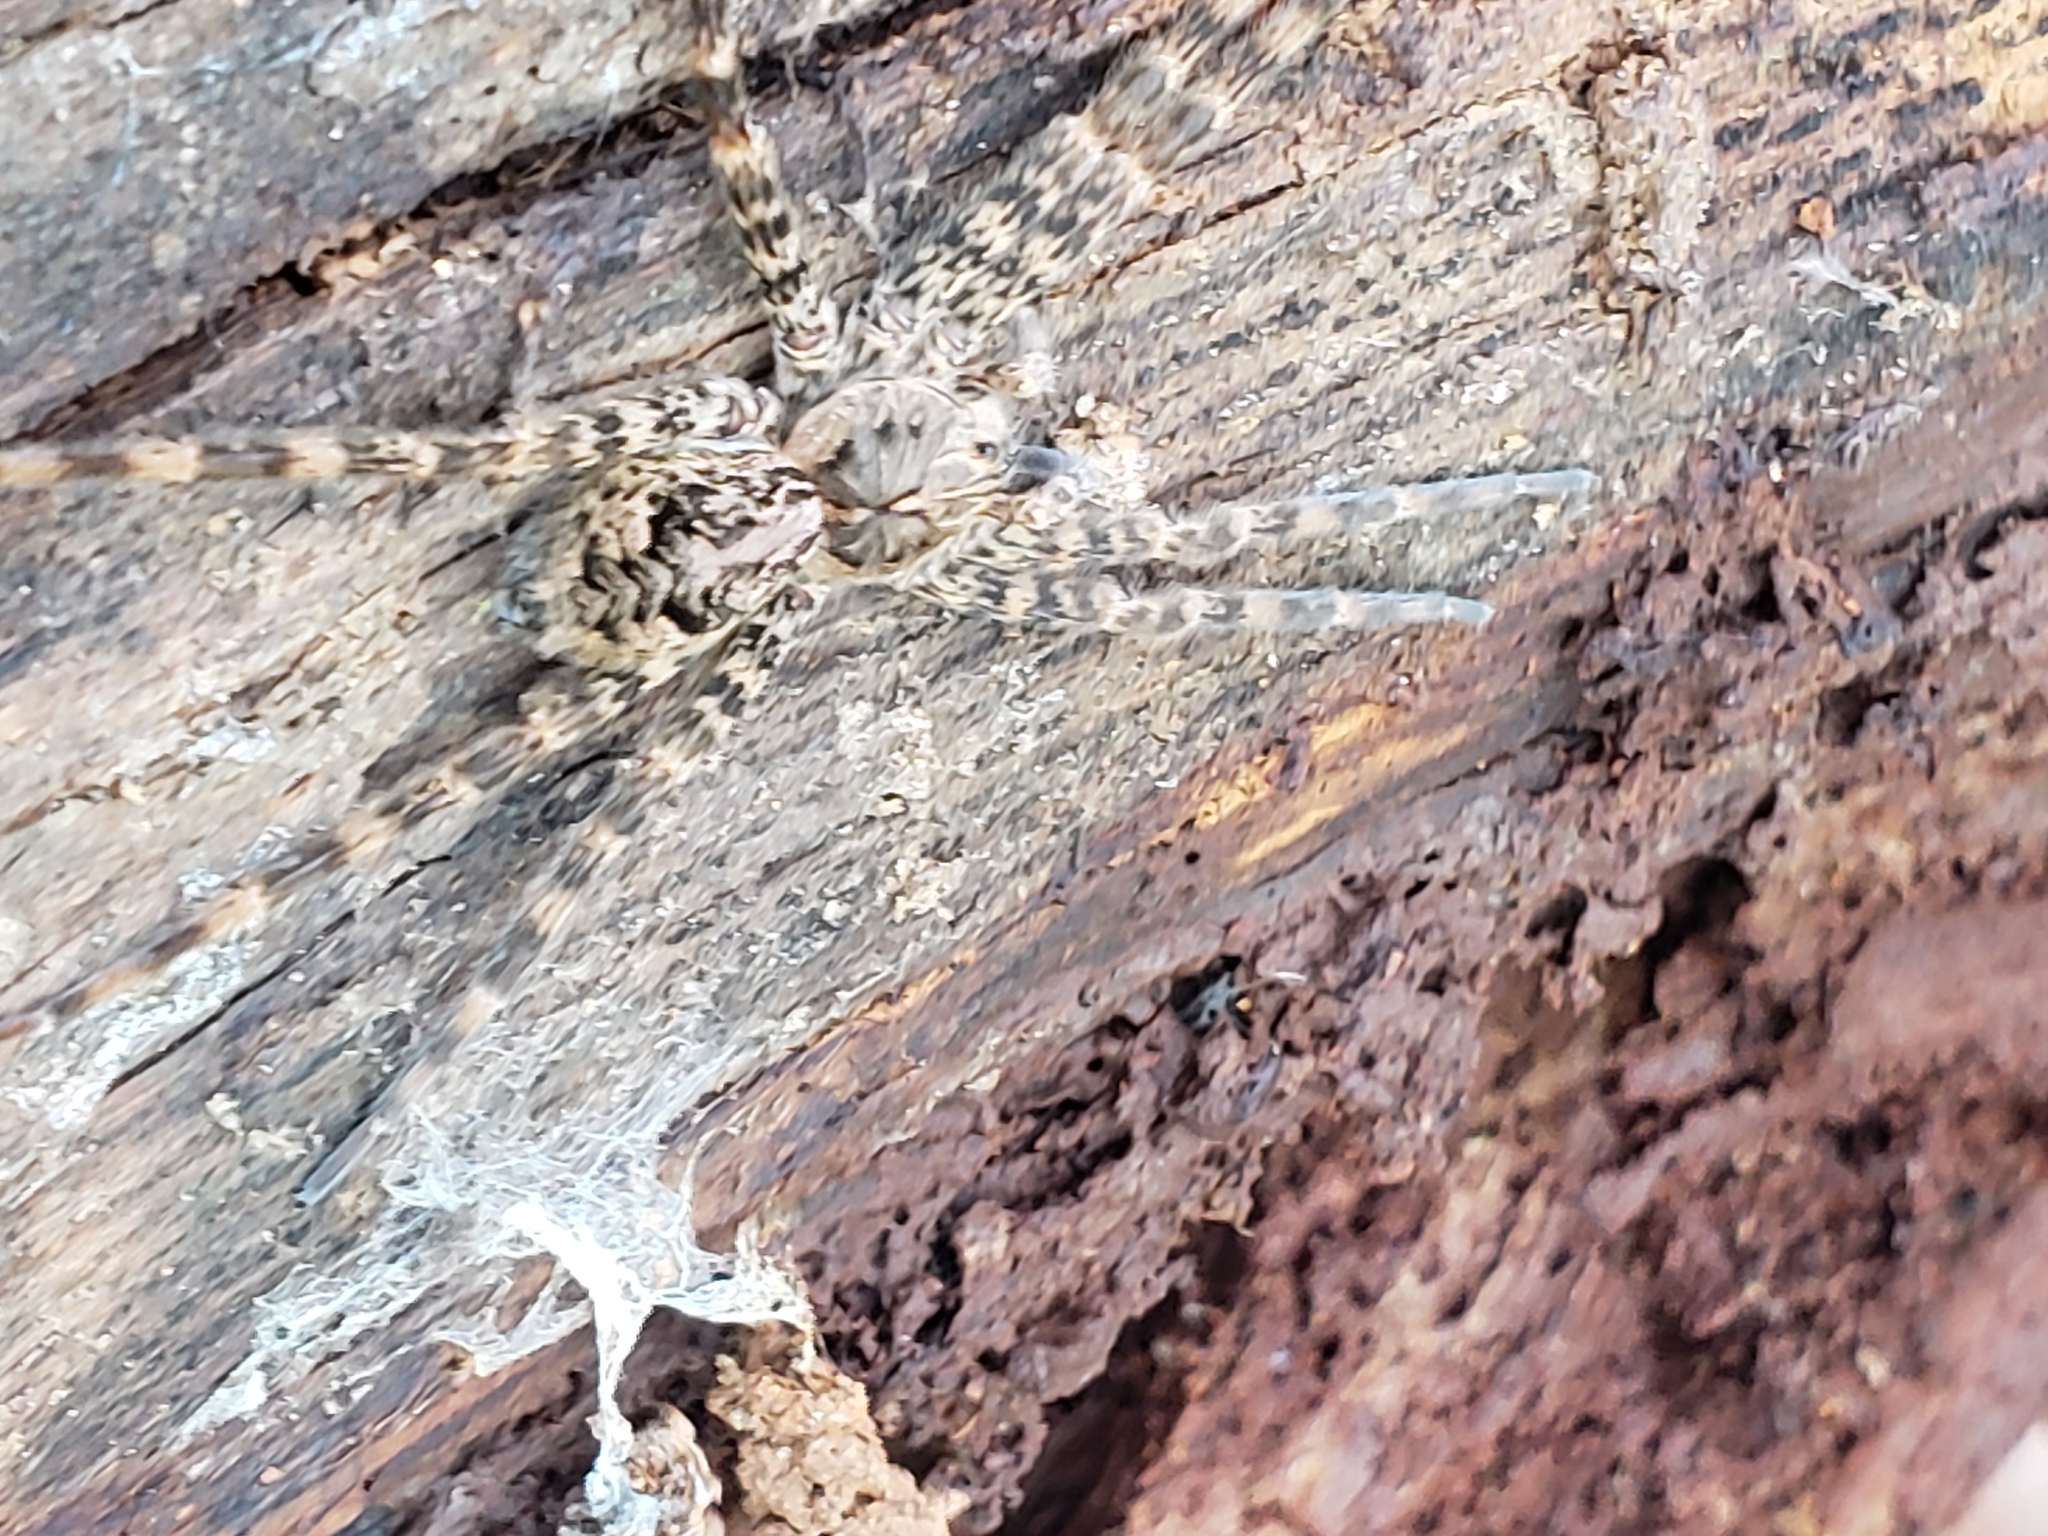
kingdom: Animalia
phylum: Arthropoda
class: Arachnida
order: Araneae
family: Pisauridae
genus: Dolomedes
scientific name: Dolomedes tenebrosus
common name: Dark fishing spider
